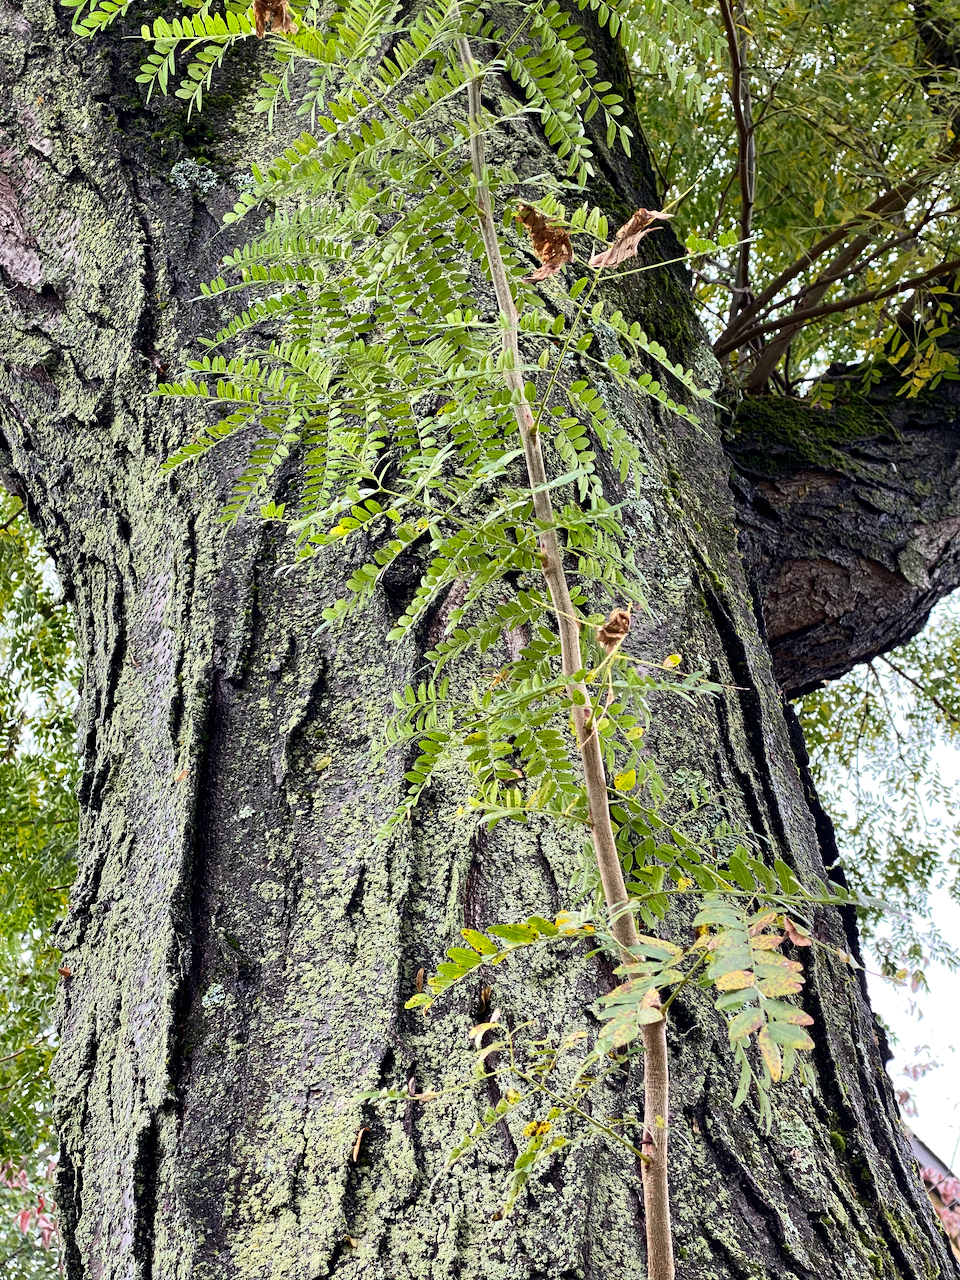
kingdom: Plantae
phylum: Tracheophyta
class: Magnoliopsida
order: Fabales
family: Fabaceae
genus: Gleditsia
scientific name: Gleditsia triacanthos
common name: Common honeylocust
